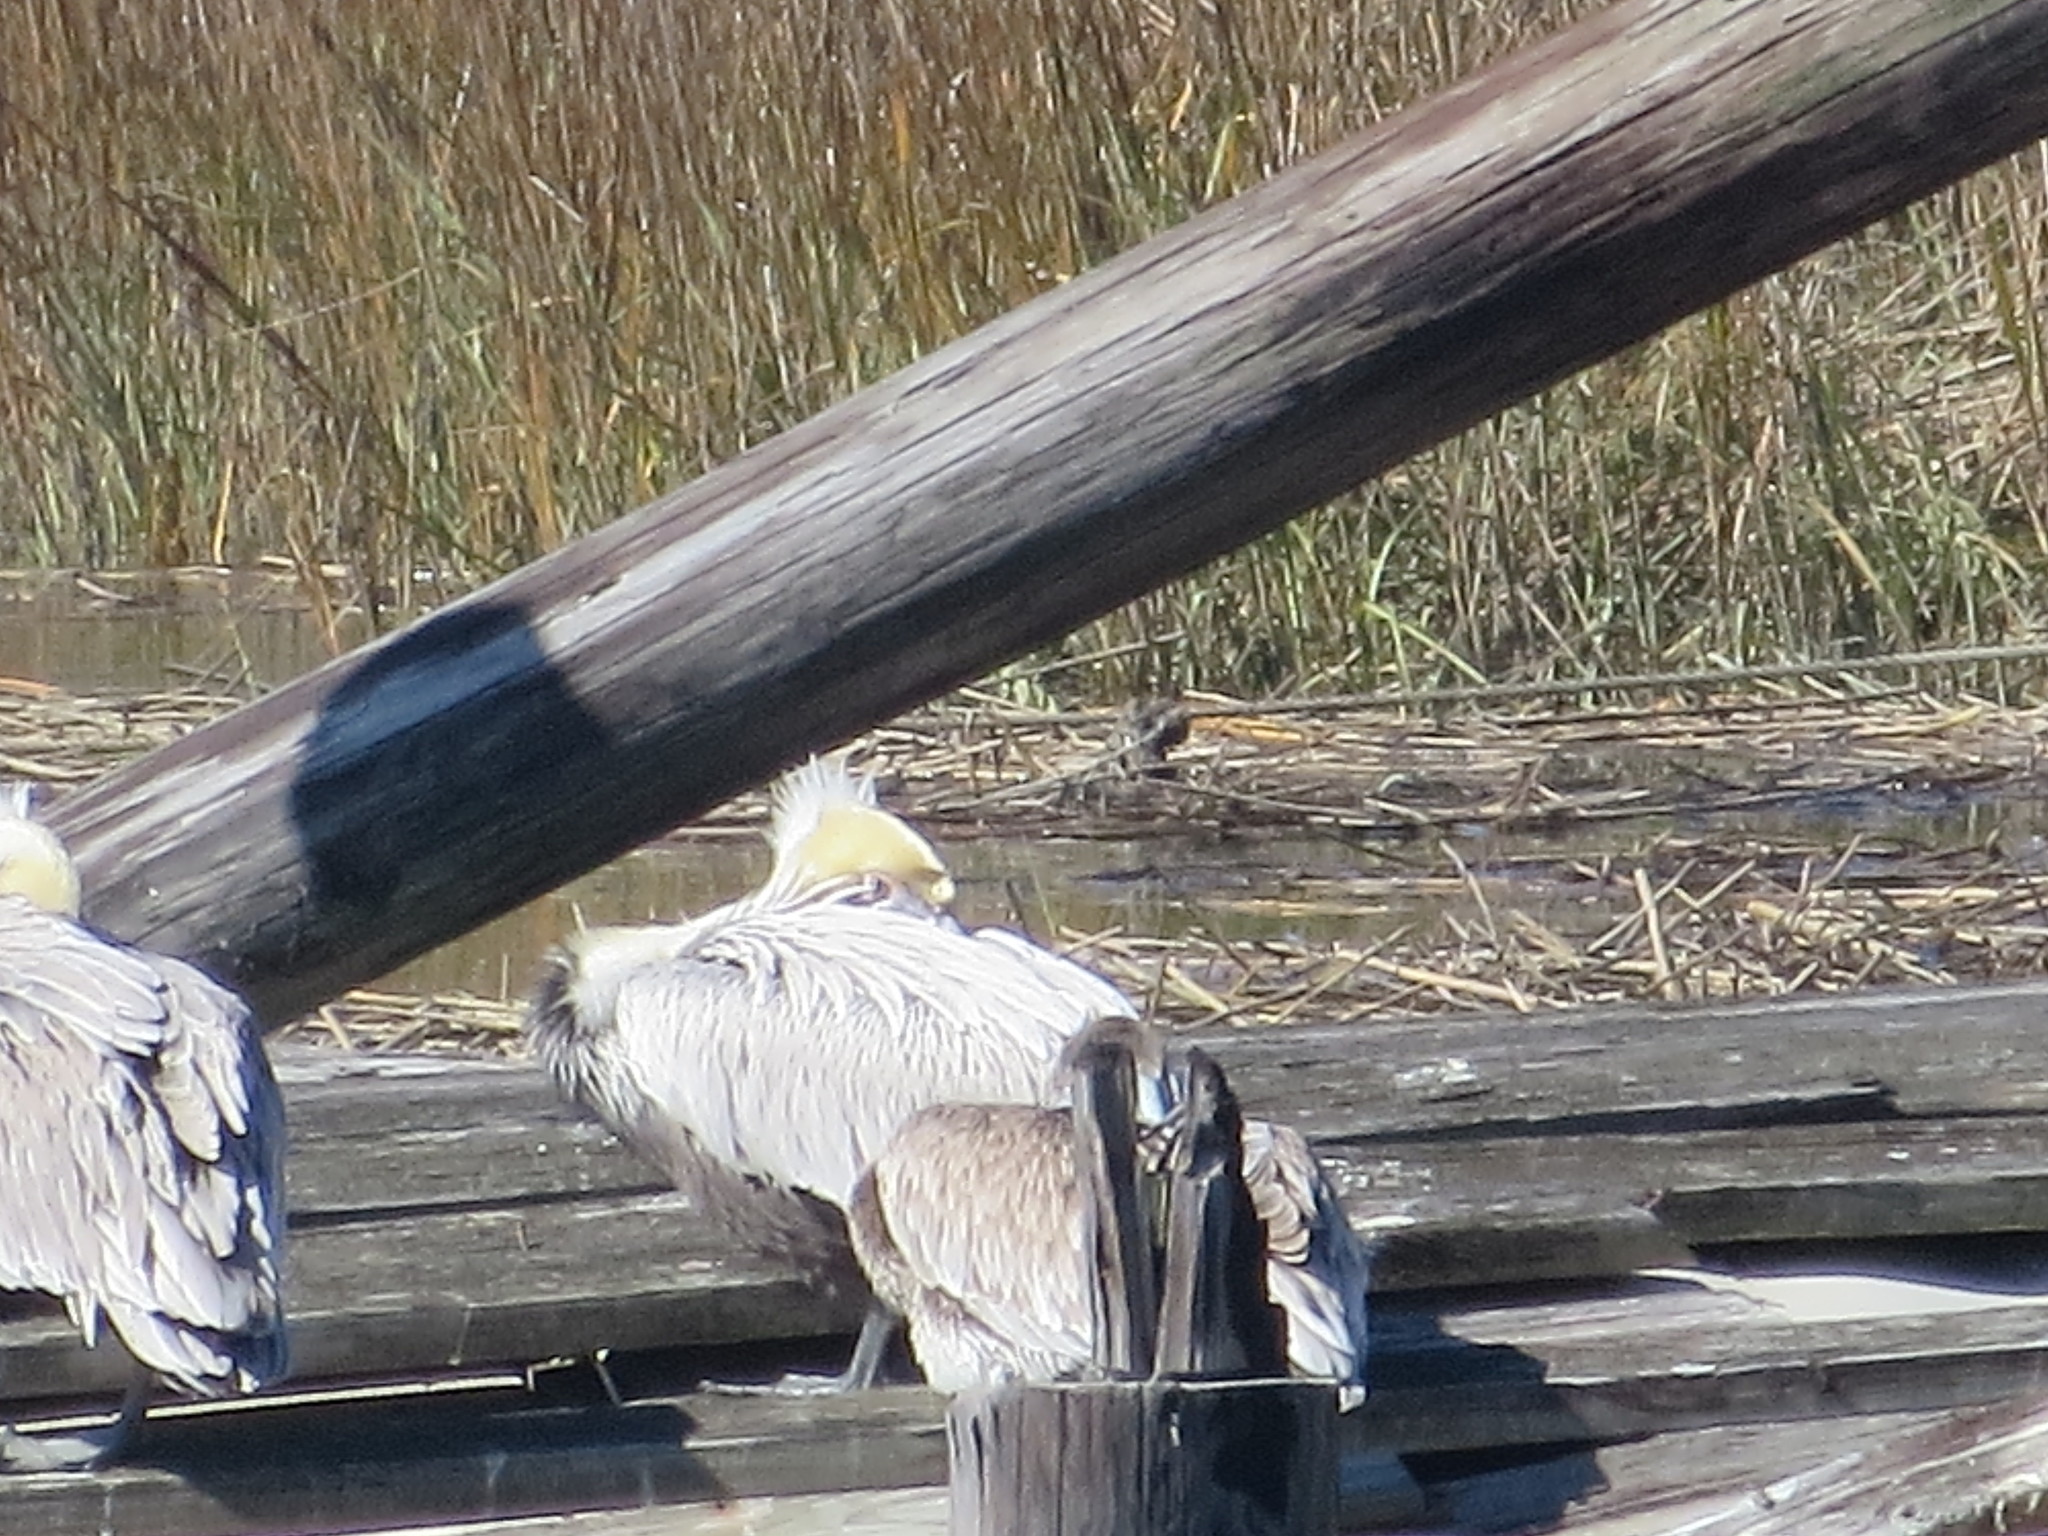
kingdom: Animalia
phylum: Chordata
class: Aves
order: Pelecaniformes
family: Pelecanidae
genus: Pelecanus
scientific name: Pelecanus occidentalis
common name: Brown pelican
